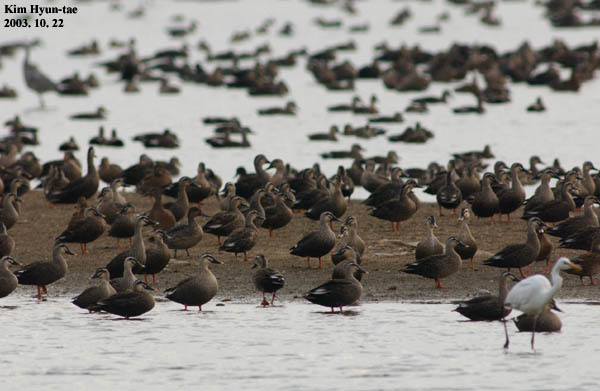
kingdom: Animalia
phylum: Chordata
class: Aves
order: Anseriformes
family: Anatidae
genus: Anas
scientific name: Anas zonorhyncha
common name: Eastern spot-billed duck
